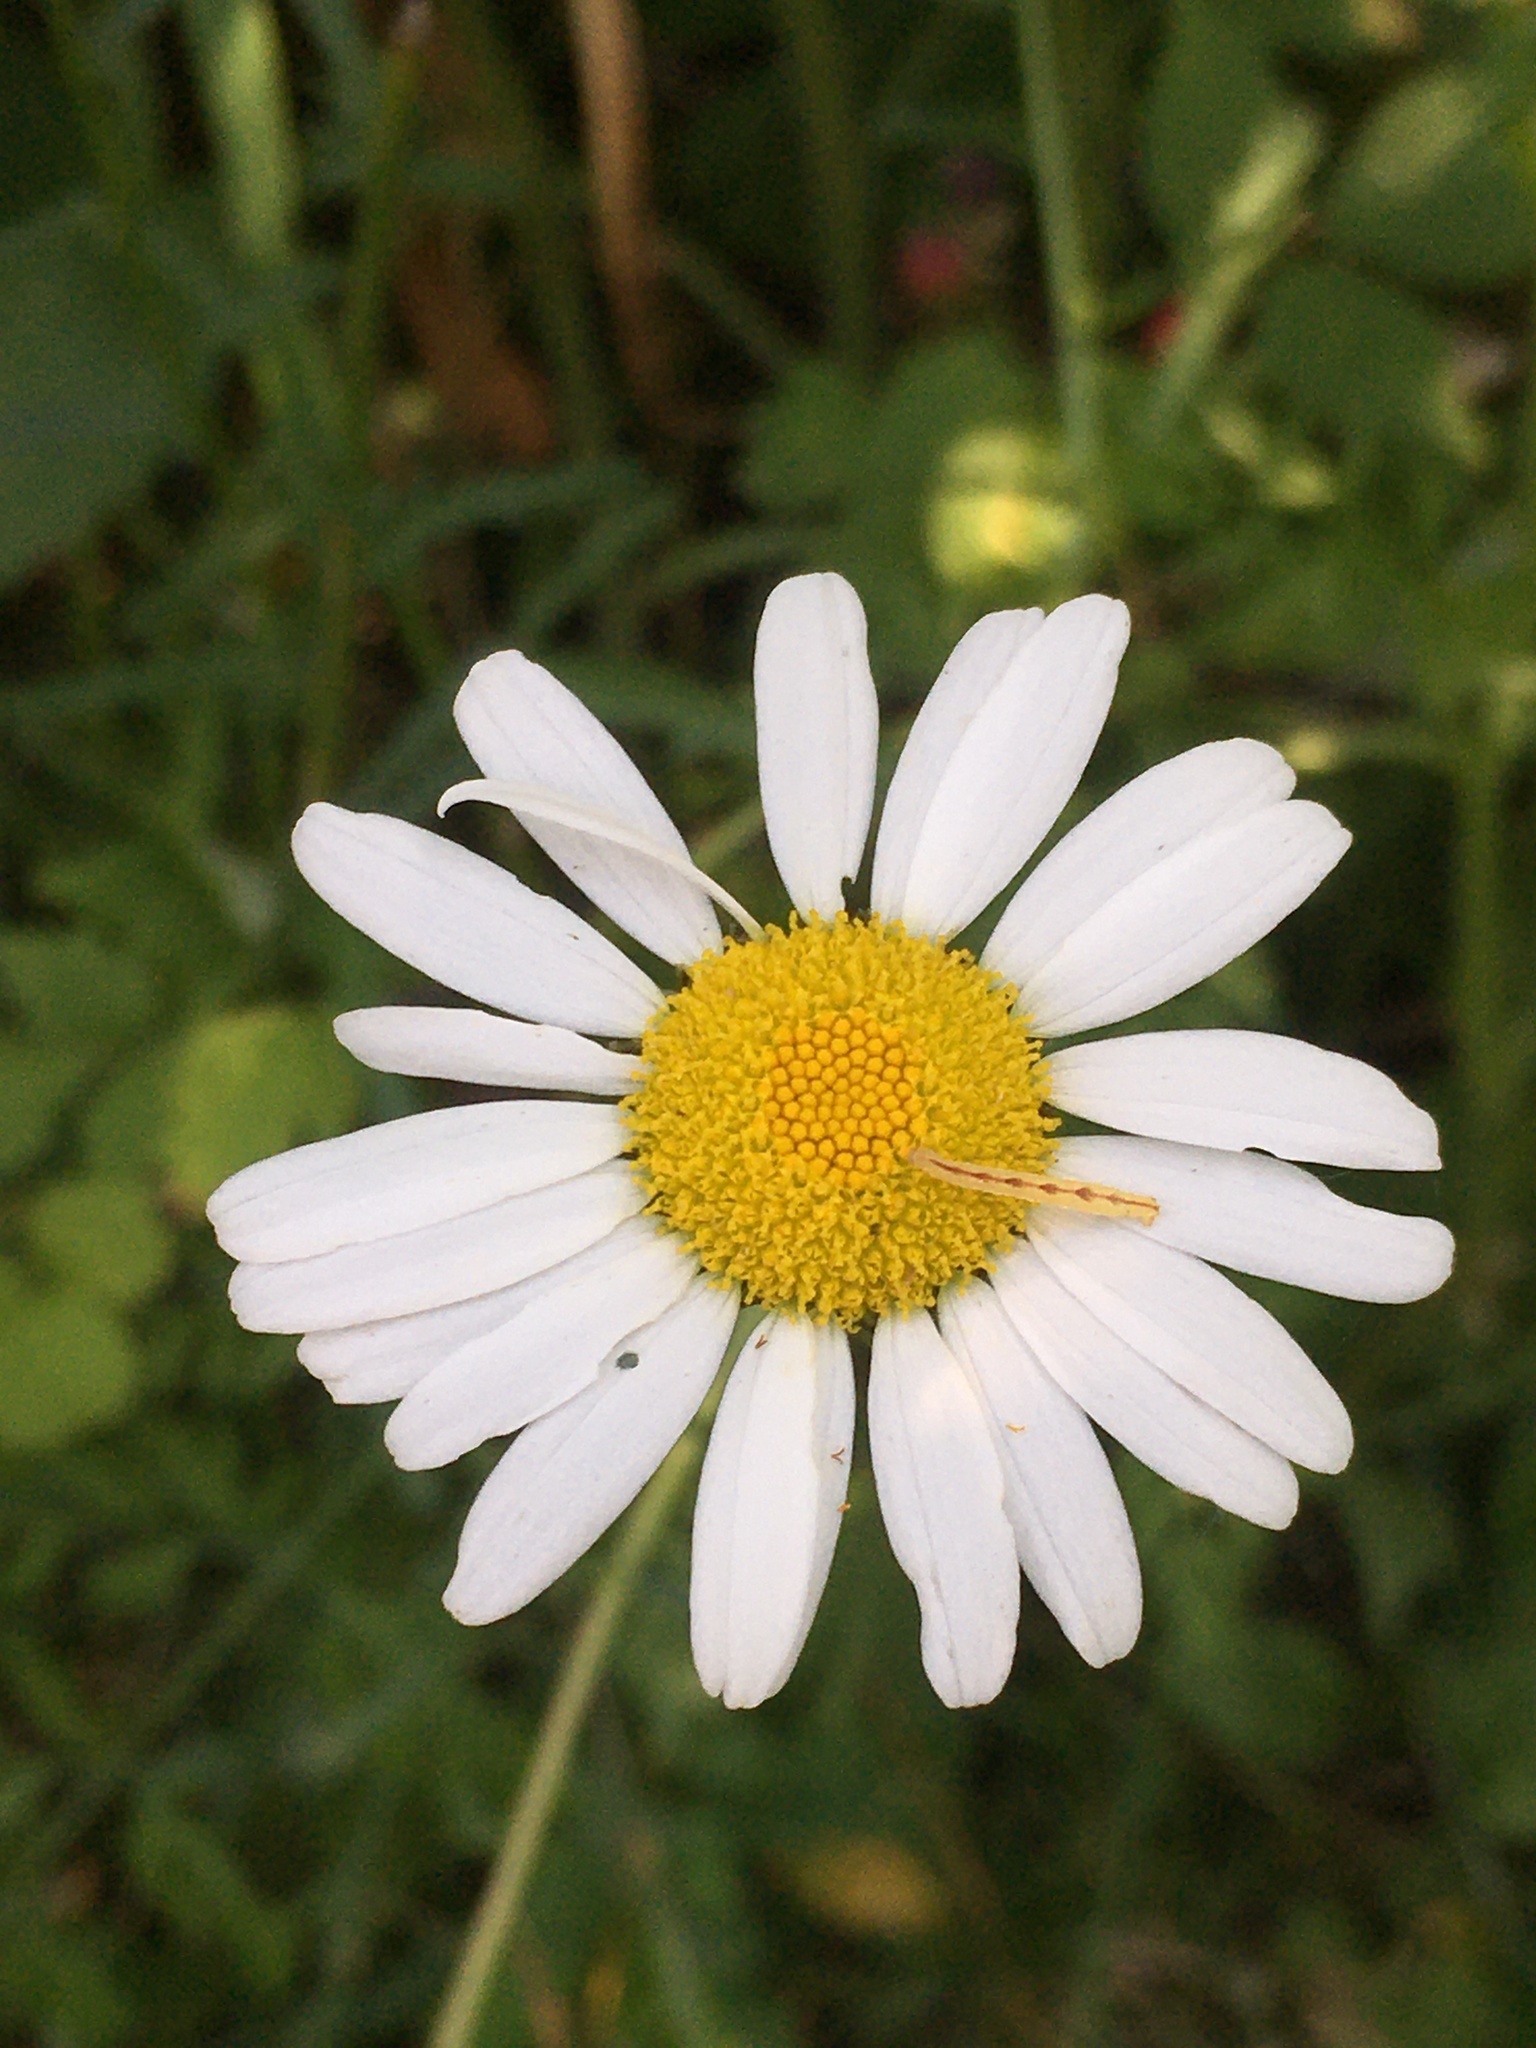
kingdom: Plantae
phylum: Tracheophyta
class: Magnoliopsida
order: Asterales
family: Asteraceae
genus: Leucanthemum
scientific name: Leucanthemum vulgare
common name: Oxeye daisy
